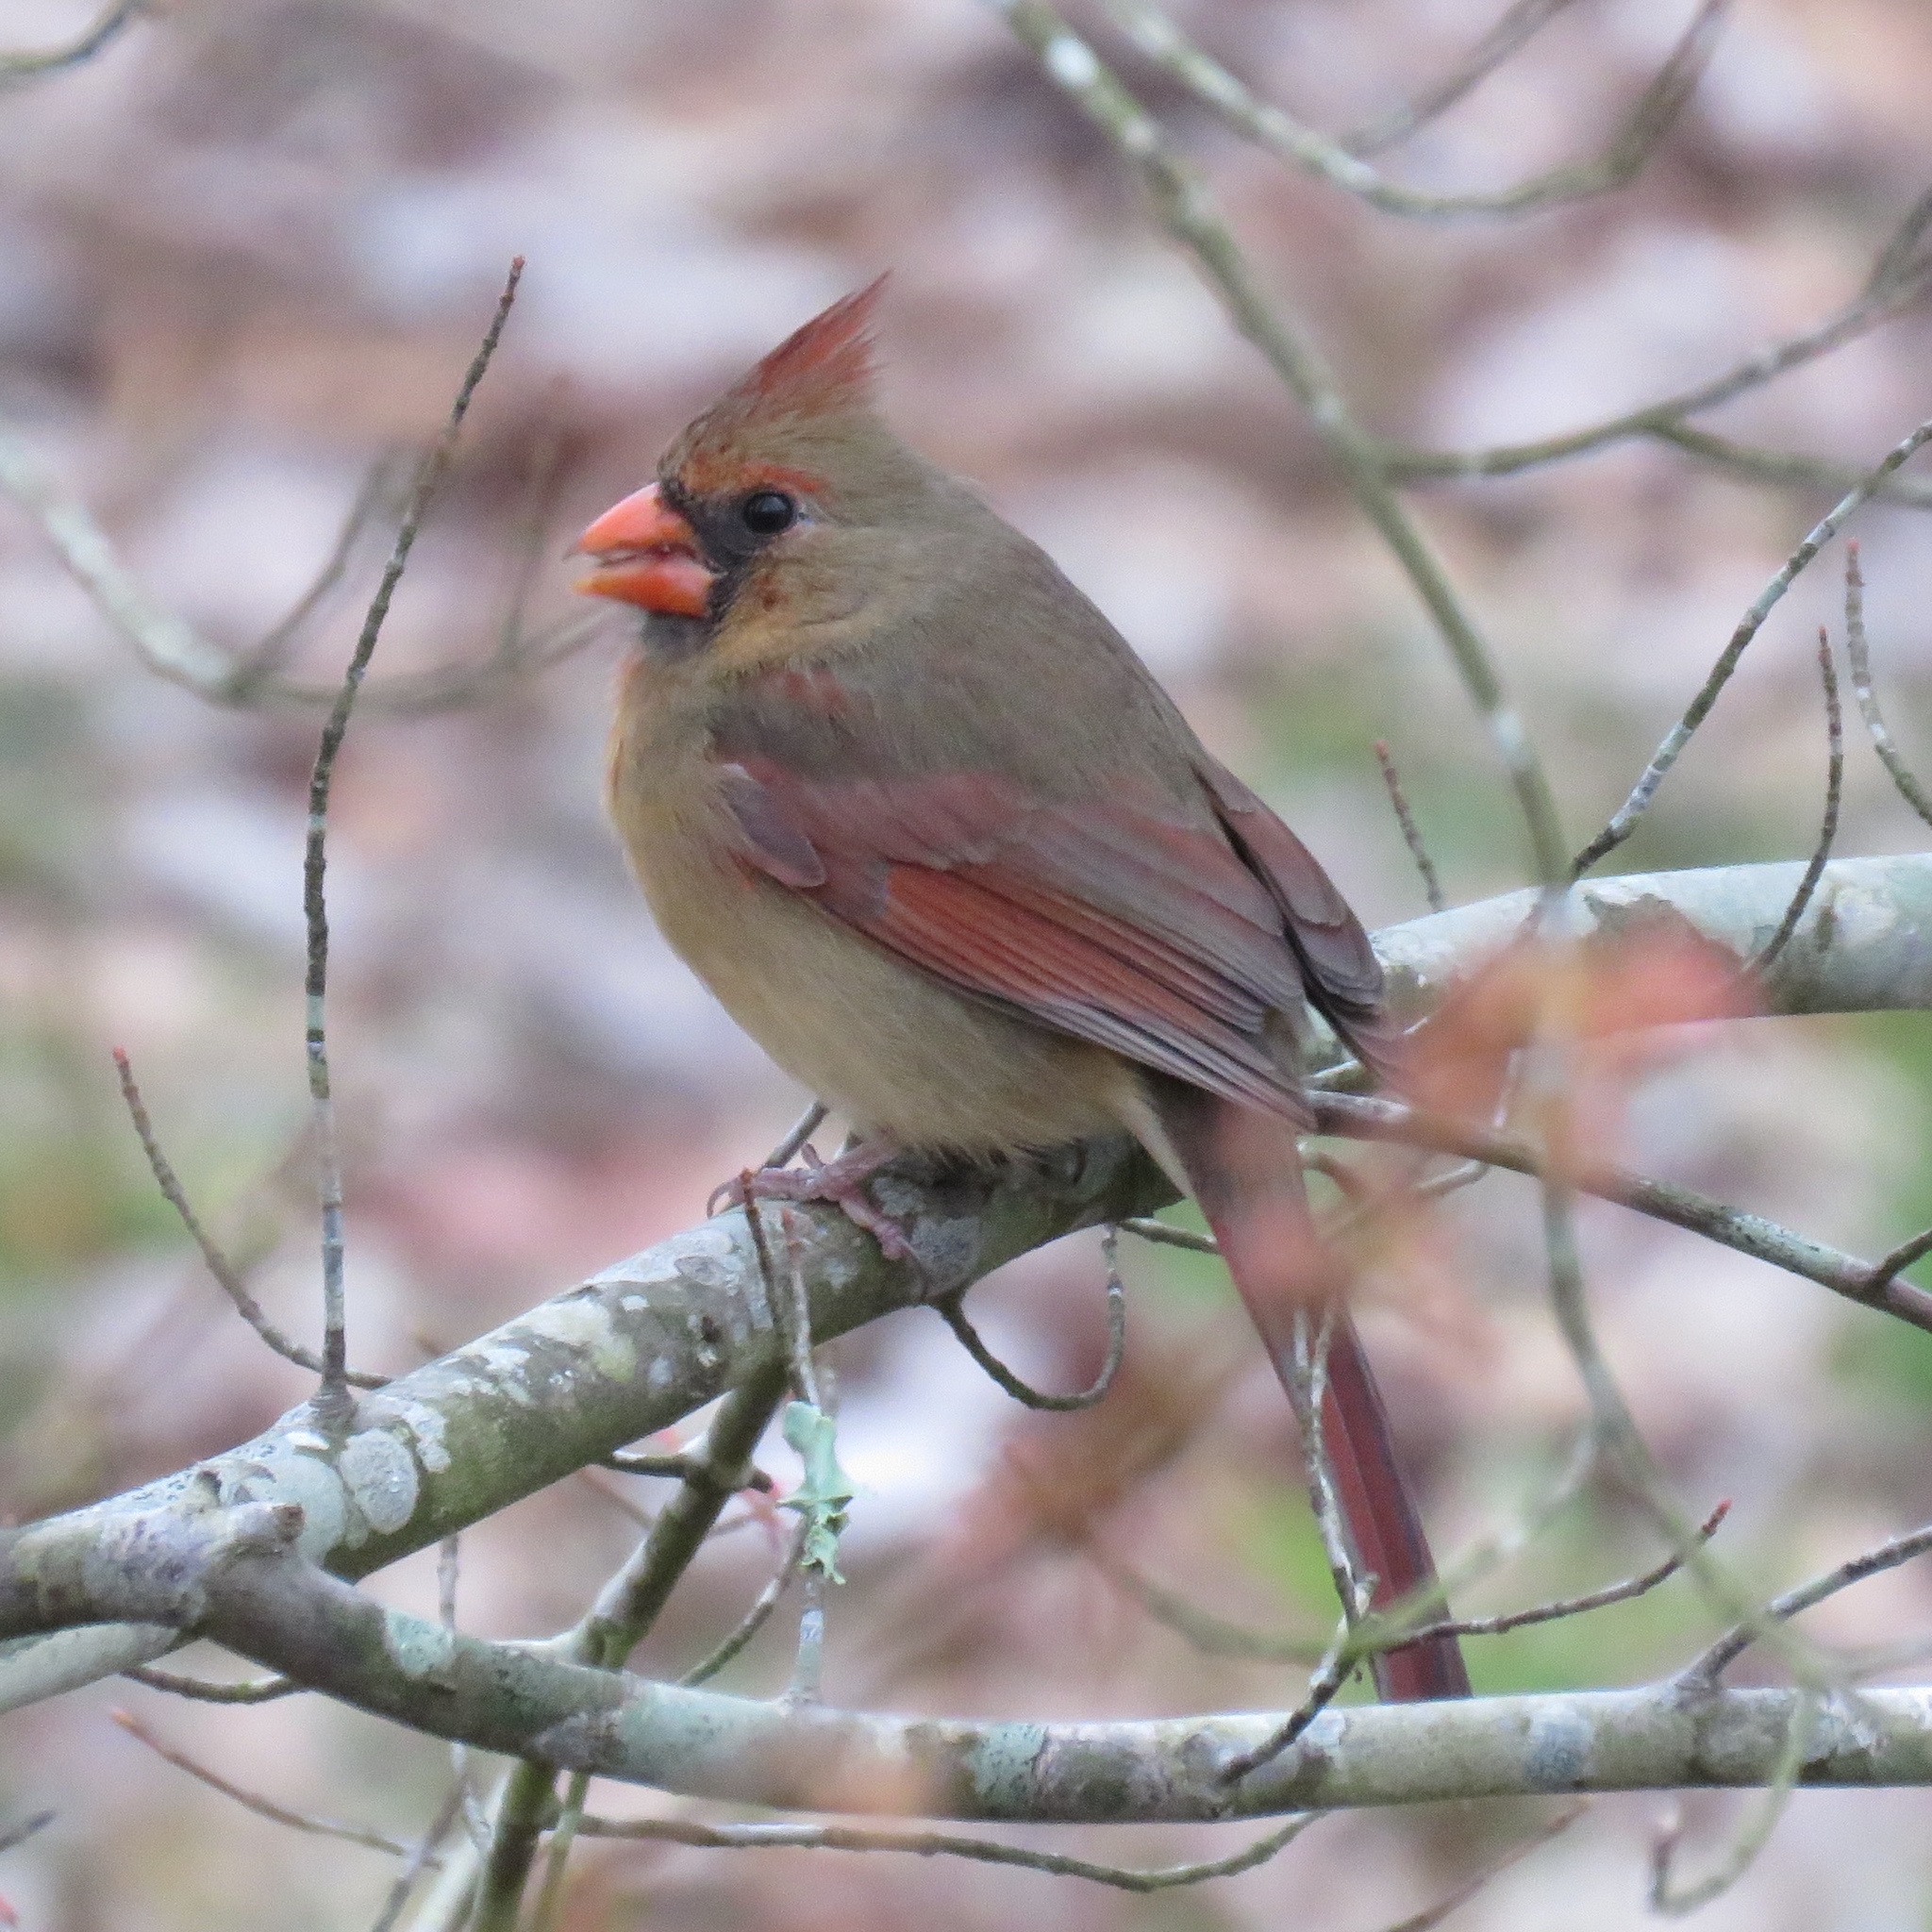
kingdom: Animalia
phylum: Chordata
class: Aves
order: Passeriformes
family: Cardinalidae
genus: Cardinalis
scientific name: Cardinalis cardinalis
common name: Northern cardinal
